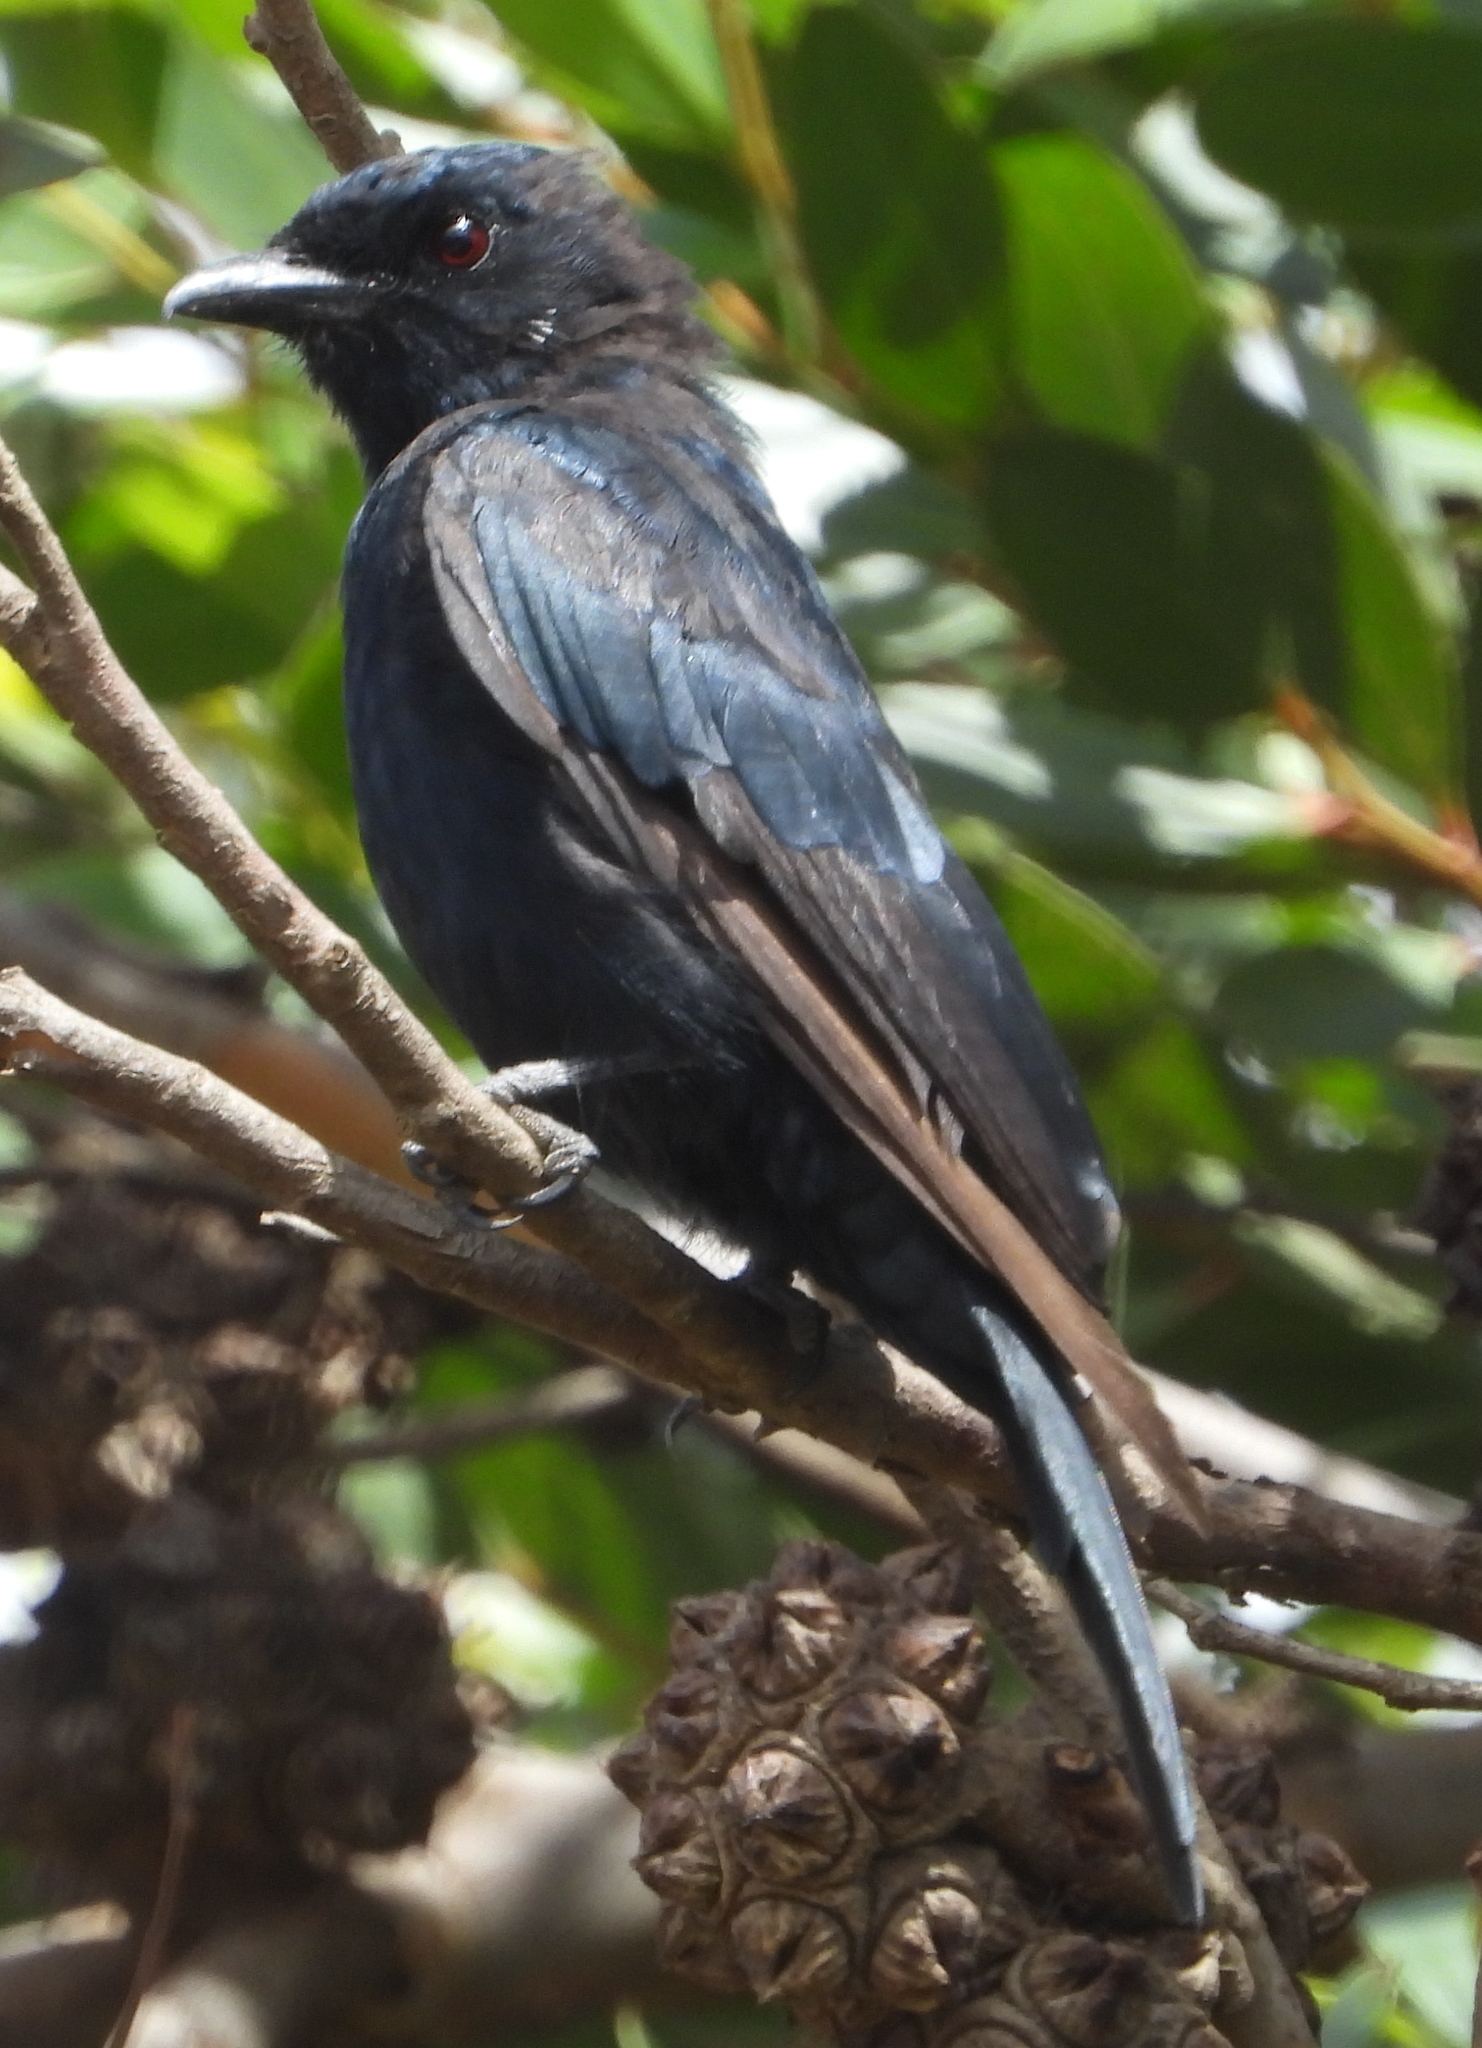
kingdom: Animalia
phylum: Chordata
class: Aves
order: Passeriformes
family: Dicruridae
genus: Dicrurus
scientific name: Dicrurus adsimilis
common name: Fork-tailed drongo
